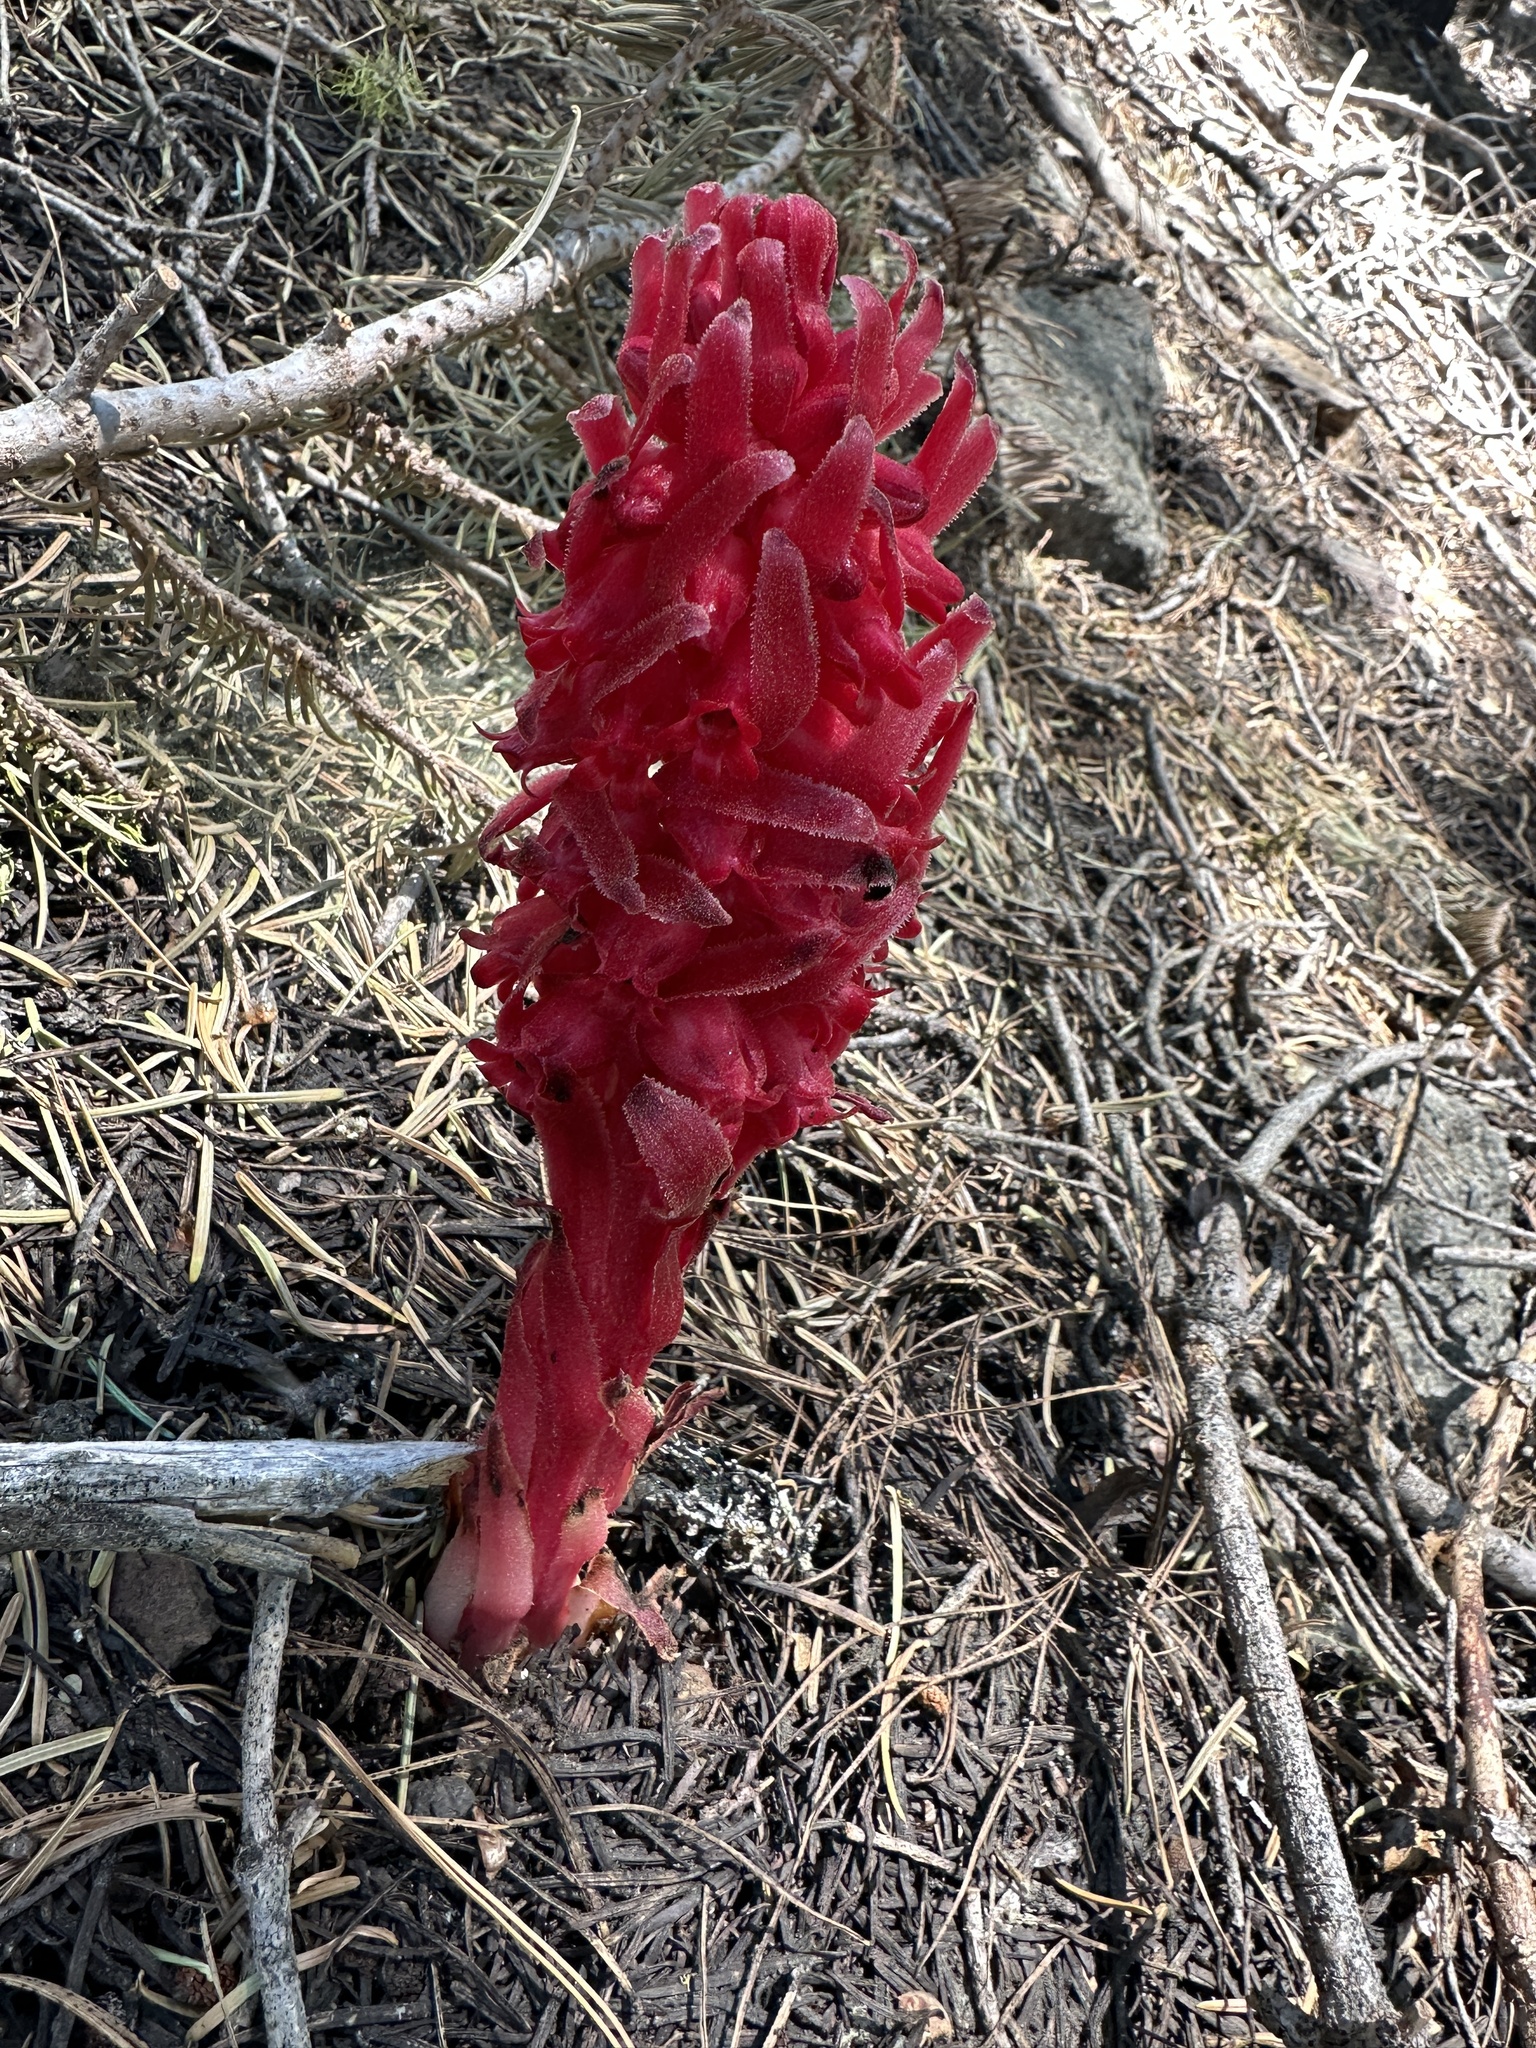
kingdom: Plantae
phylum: Tracheophyta
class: Magnoliopsida
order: Ericales
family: Ericaceae
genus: Sarcodes
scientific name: Sarcodes sanguinea
